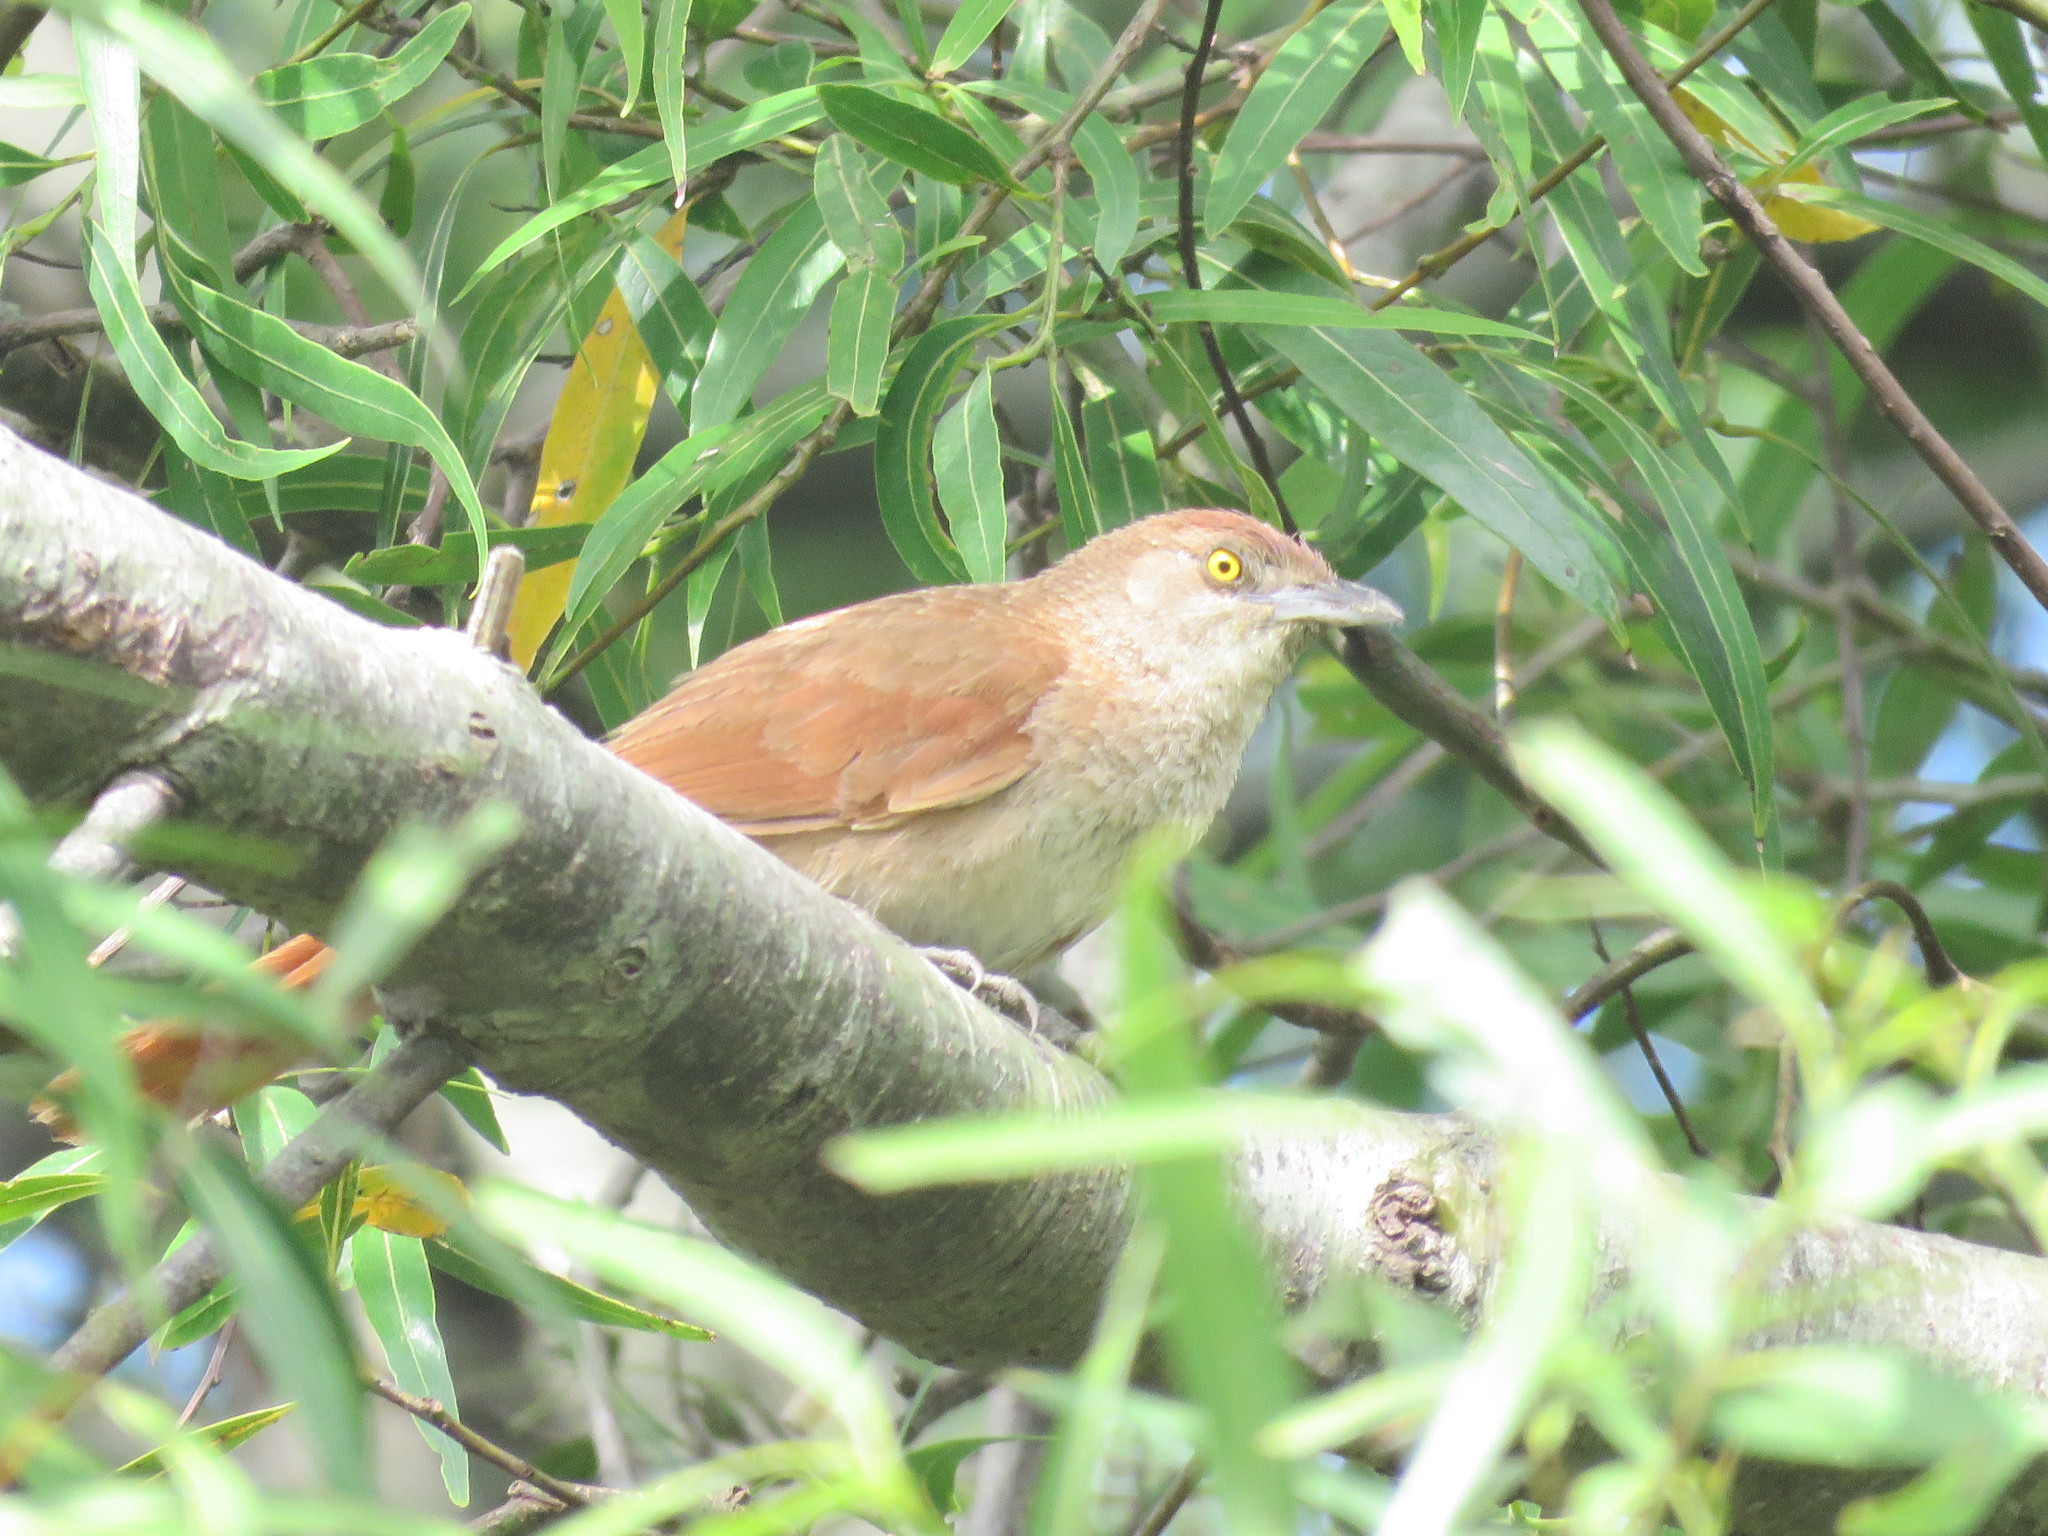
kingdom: Animalia
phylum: Chordata
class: Aves
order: Passeriformes
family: Furnariidae
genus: Phacellodomus
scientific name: Phacellodomus striaticollis
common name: Freckle-breasted thornbird
